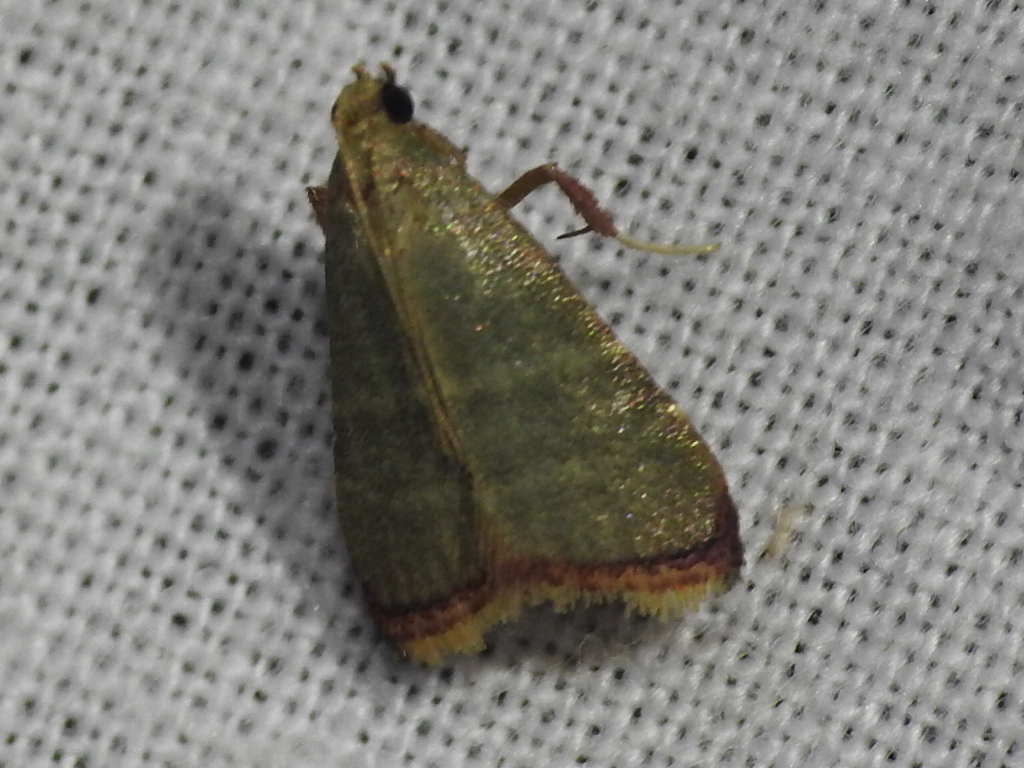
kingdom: Animalia
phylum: Arthropoda
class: Insecta
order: Lepidoptera
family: Pyralidae
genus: Arta
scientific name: Arta olivalis
